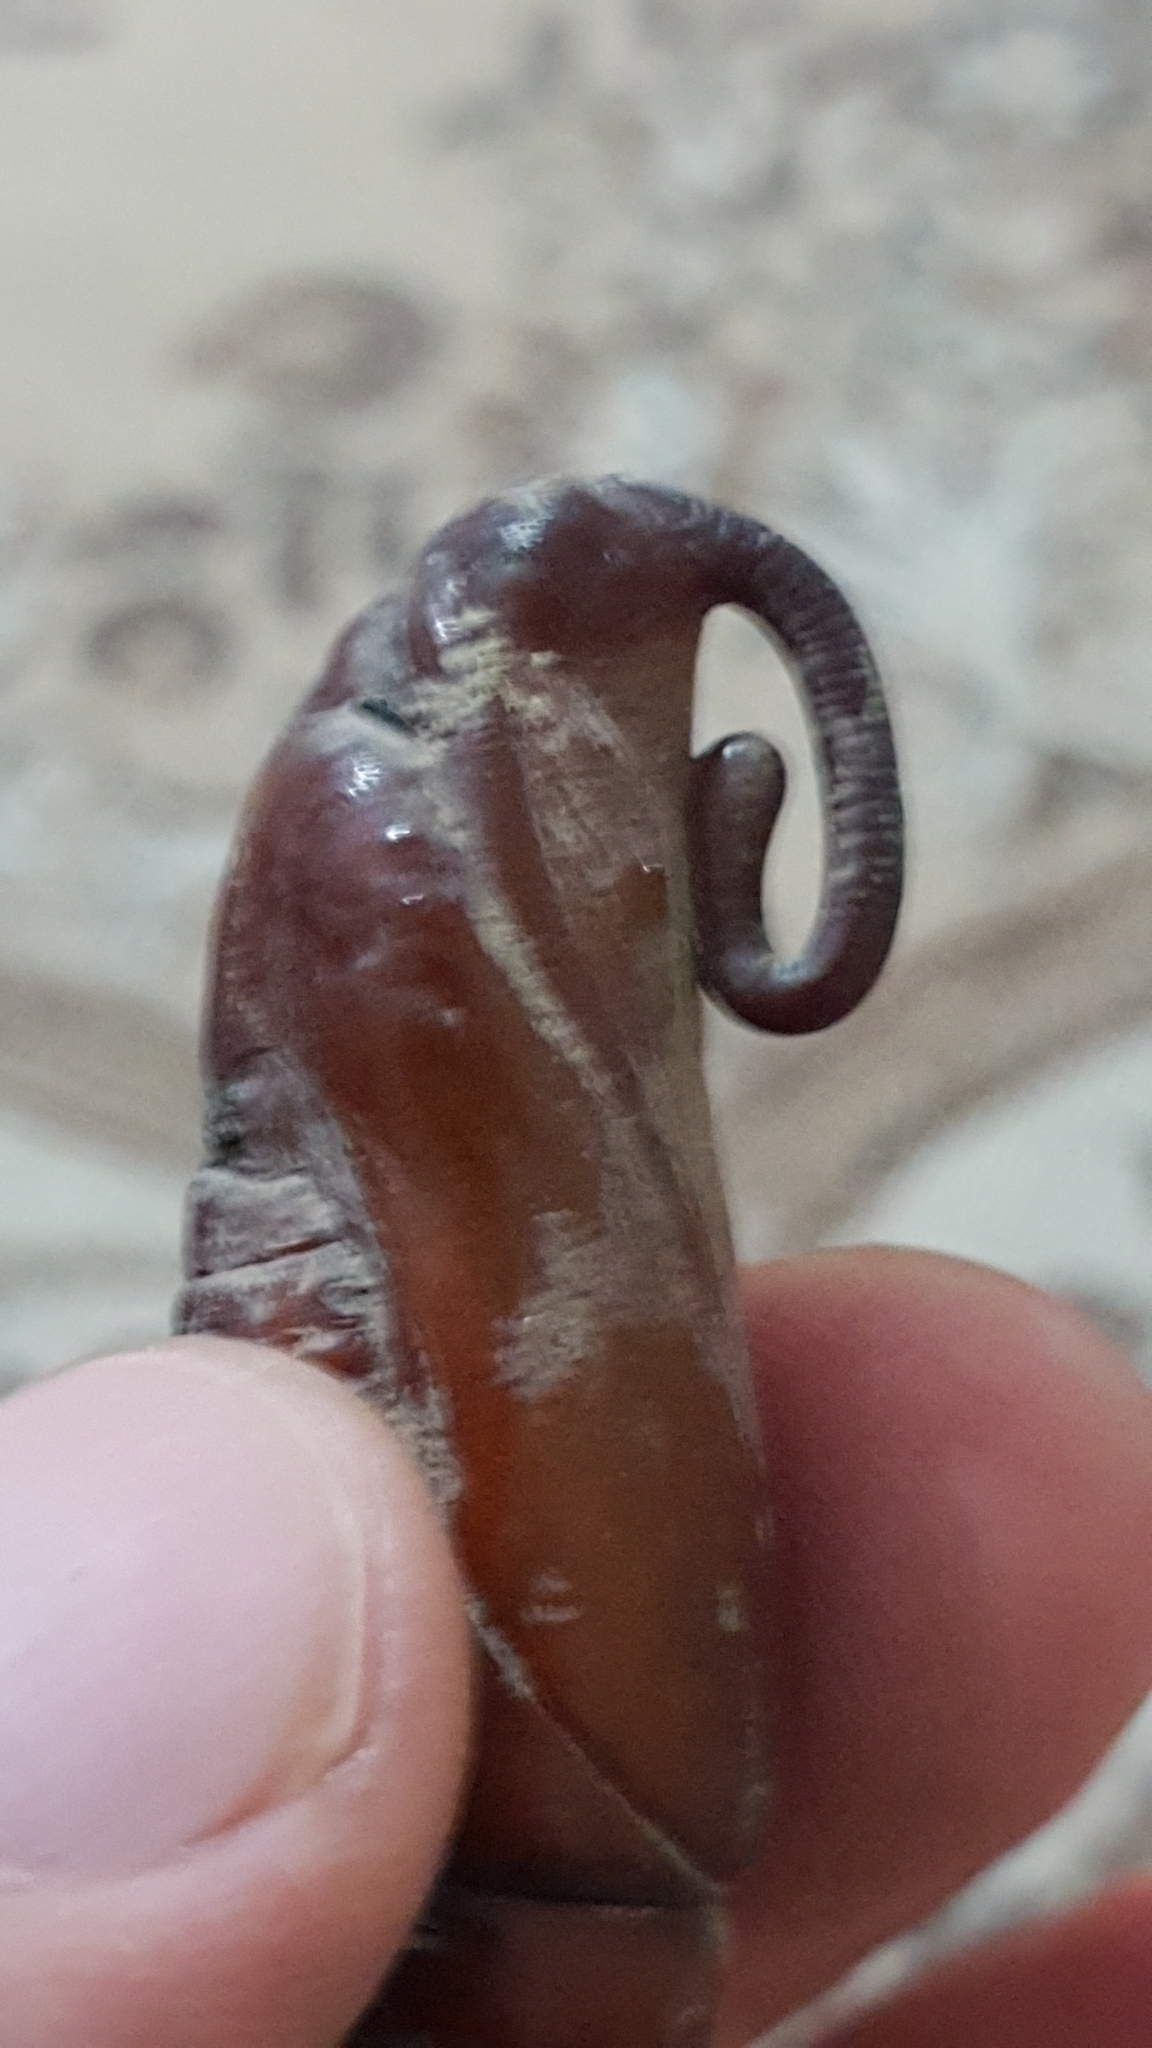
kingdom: Animalia
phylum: Arthropoda
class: Insecta
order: Lepidoptera
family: Sphingidae
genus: Agrius
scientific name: Agrius convolvuli
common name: Convolvulus hawkmoth
